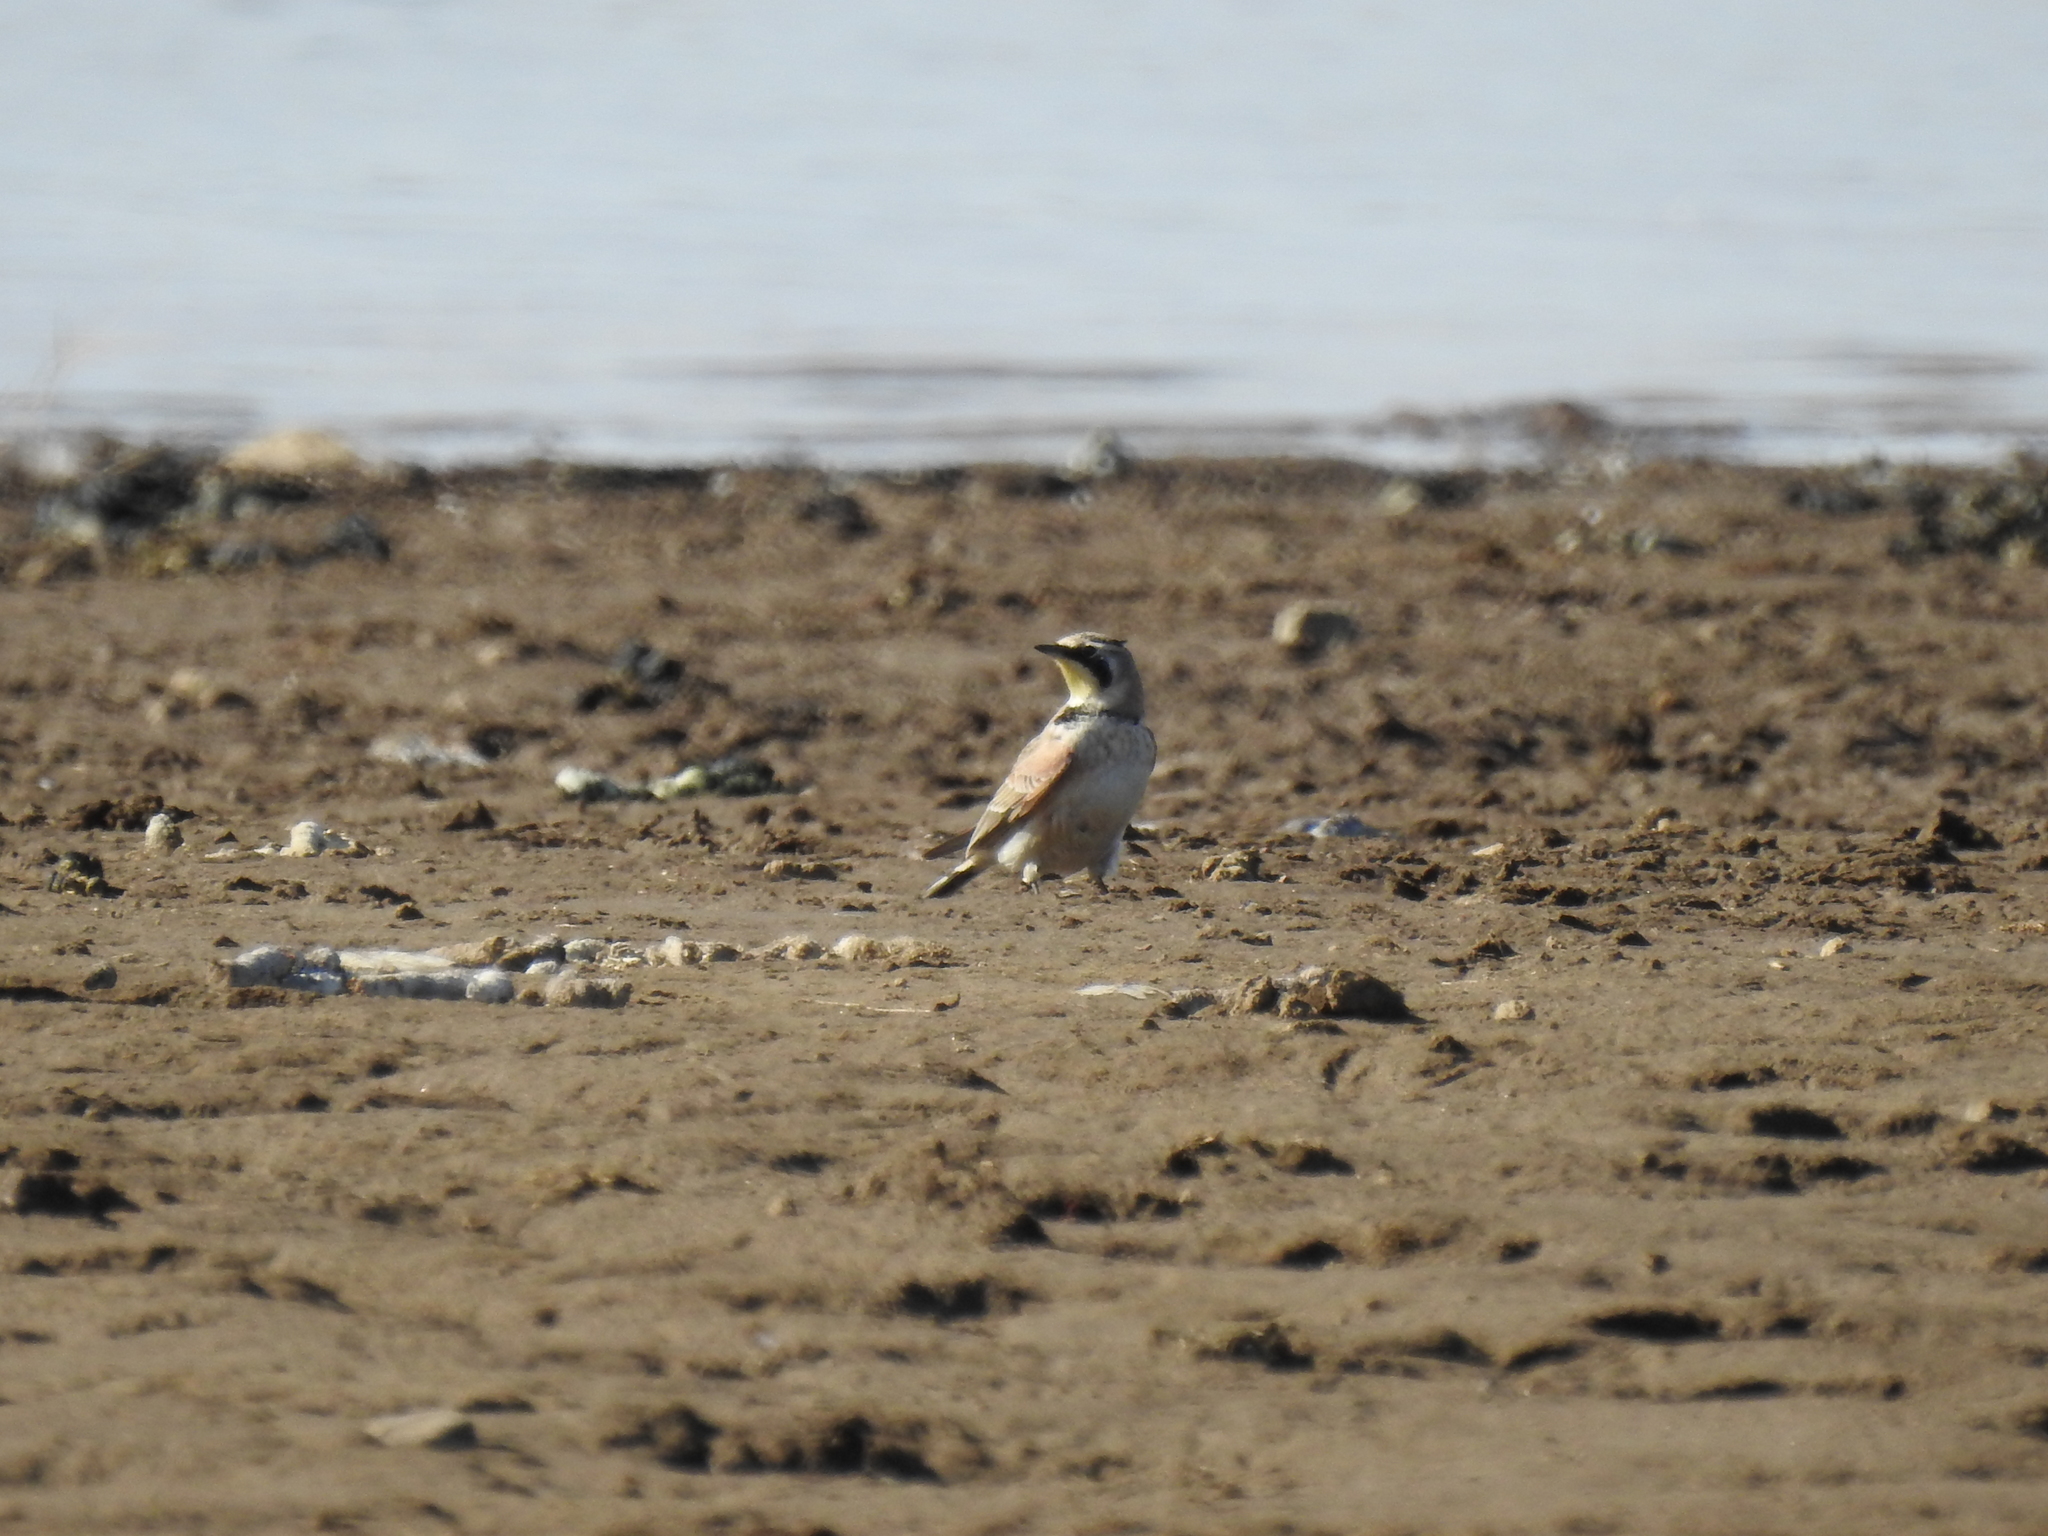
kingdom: Animalia
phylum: Chordata
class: Aves
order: Passeriformes
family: Alaudidae
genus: Eremophila
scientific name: Eremophila alpestris
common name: Horned lark
